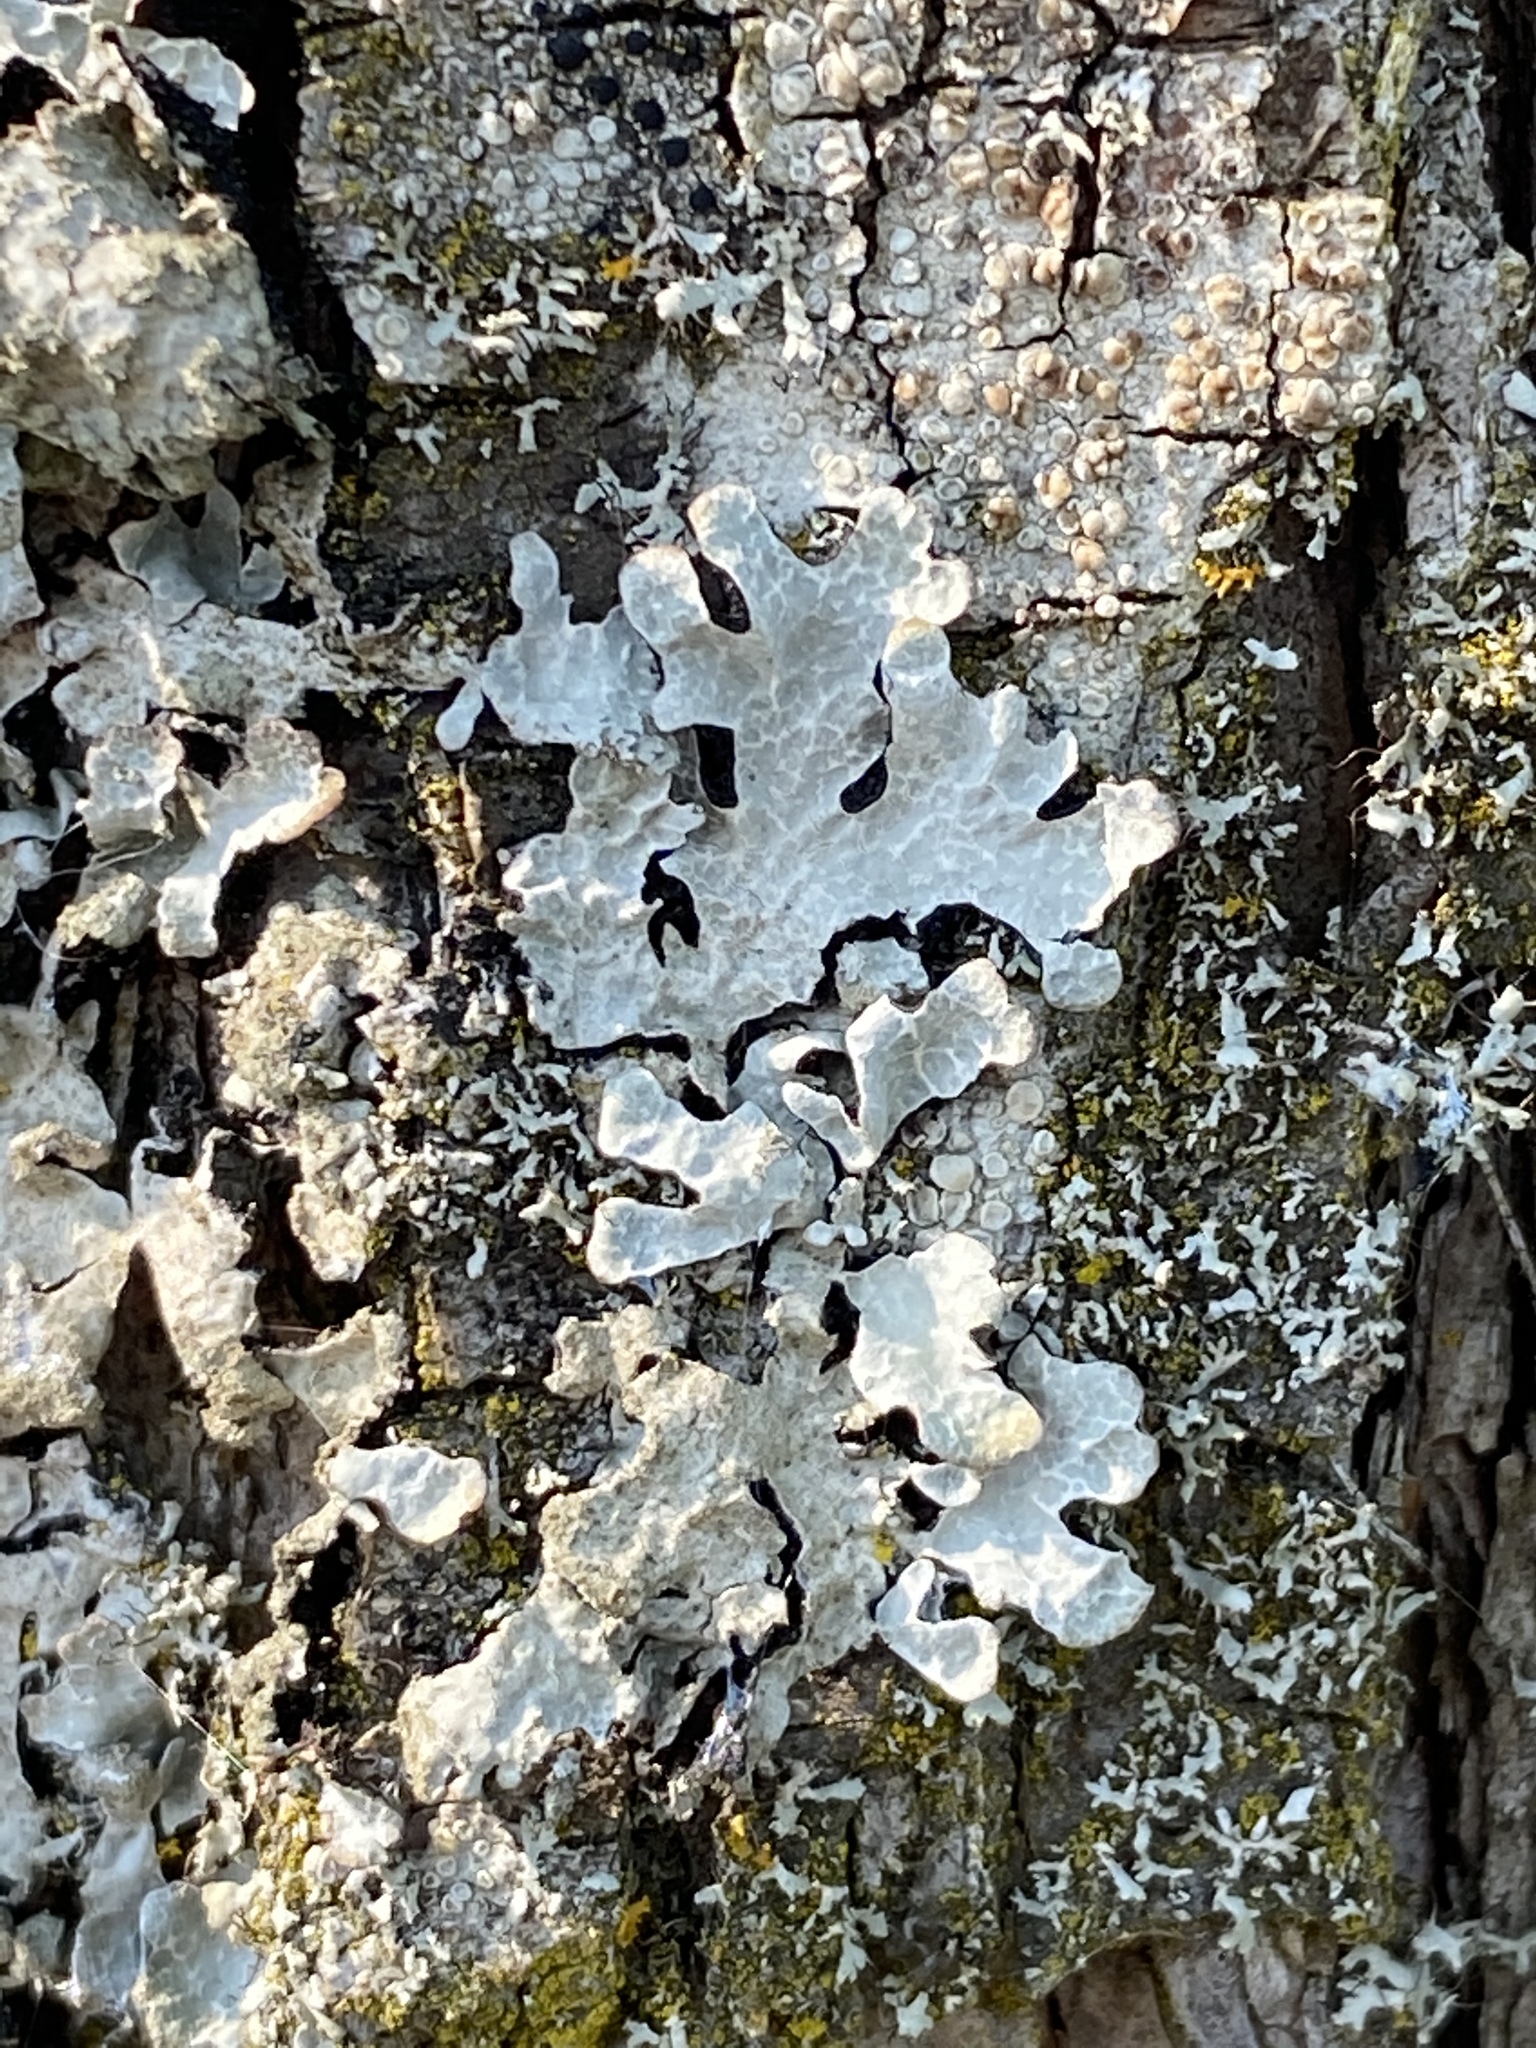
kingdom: Fungi
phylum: Ascomycota
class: Lecanoromycetes
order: Lecanorales
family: Parmeliaceae
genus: Parmelia
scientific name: Parmelia sulcata
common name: Netted shield lichen
